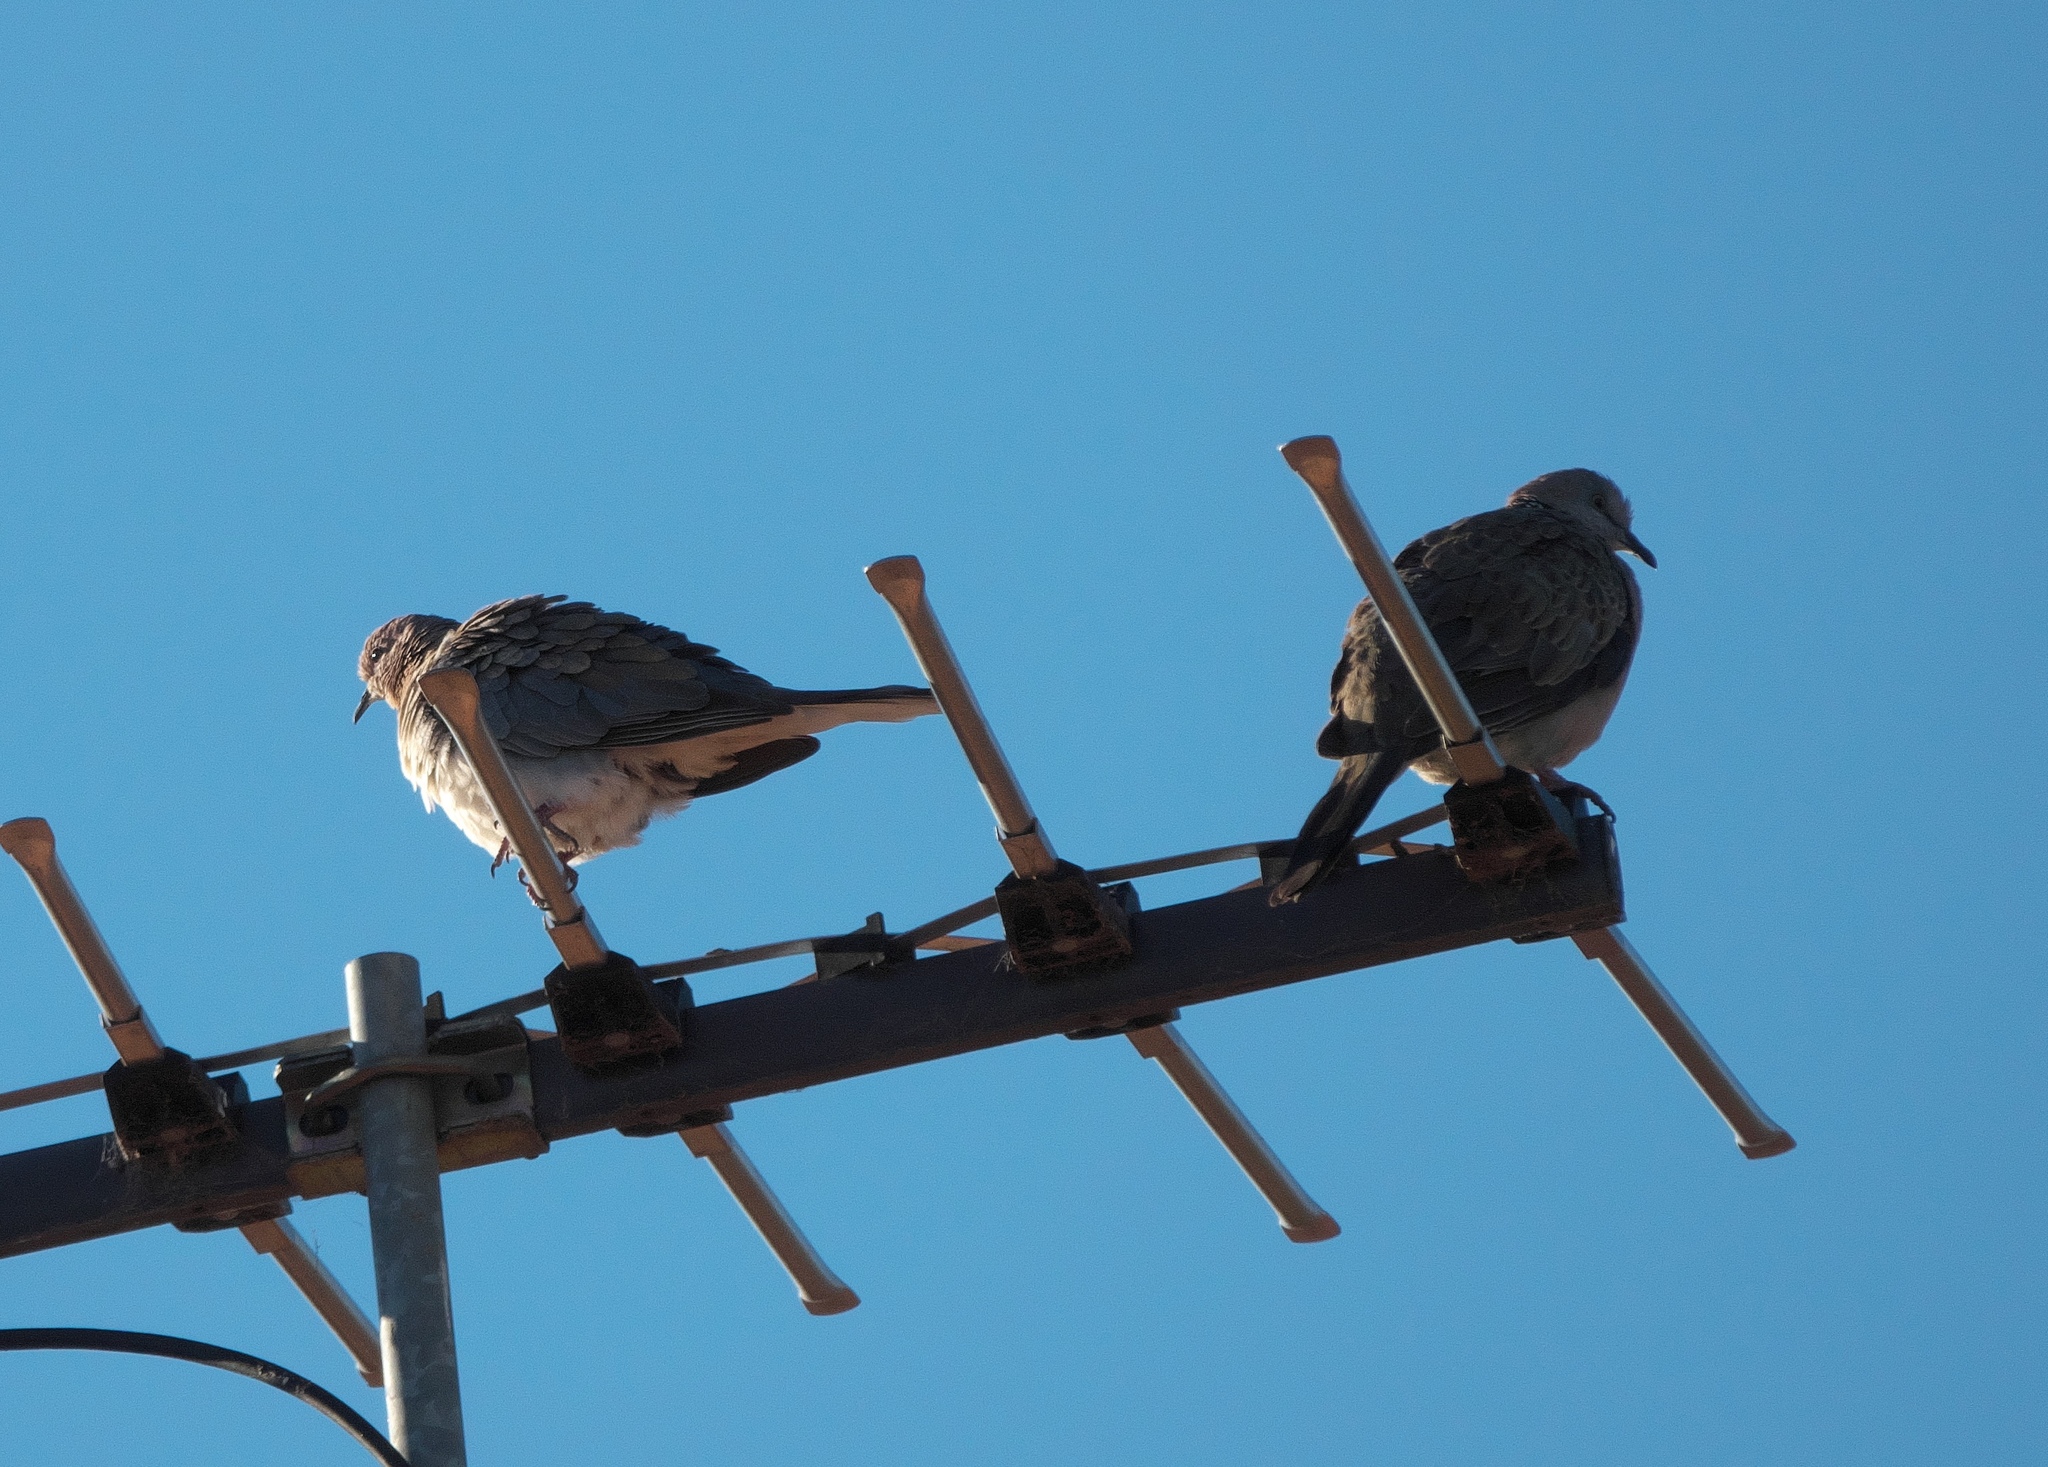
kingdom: Animalia
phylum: Chordata
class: Aves
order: Columbiformes
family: Columbidae
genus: Spilopelia
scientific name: Spilopelia senegalensis
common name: Laughing dove
